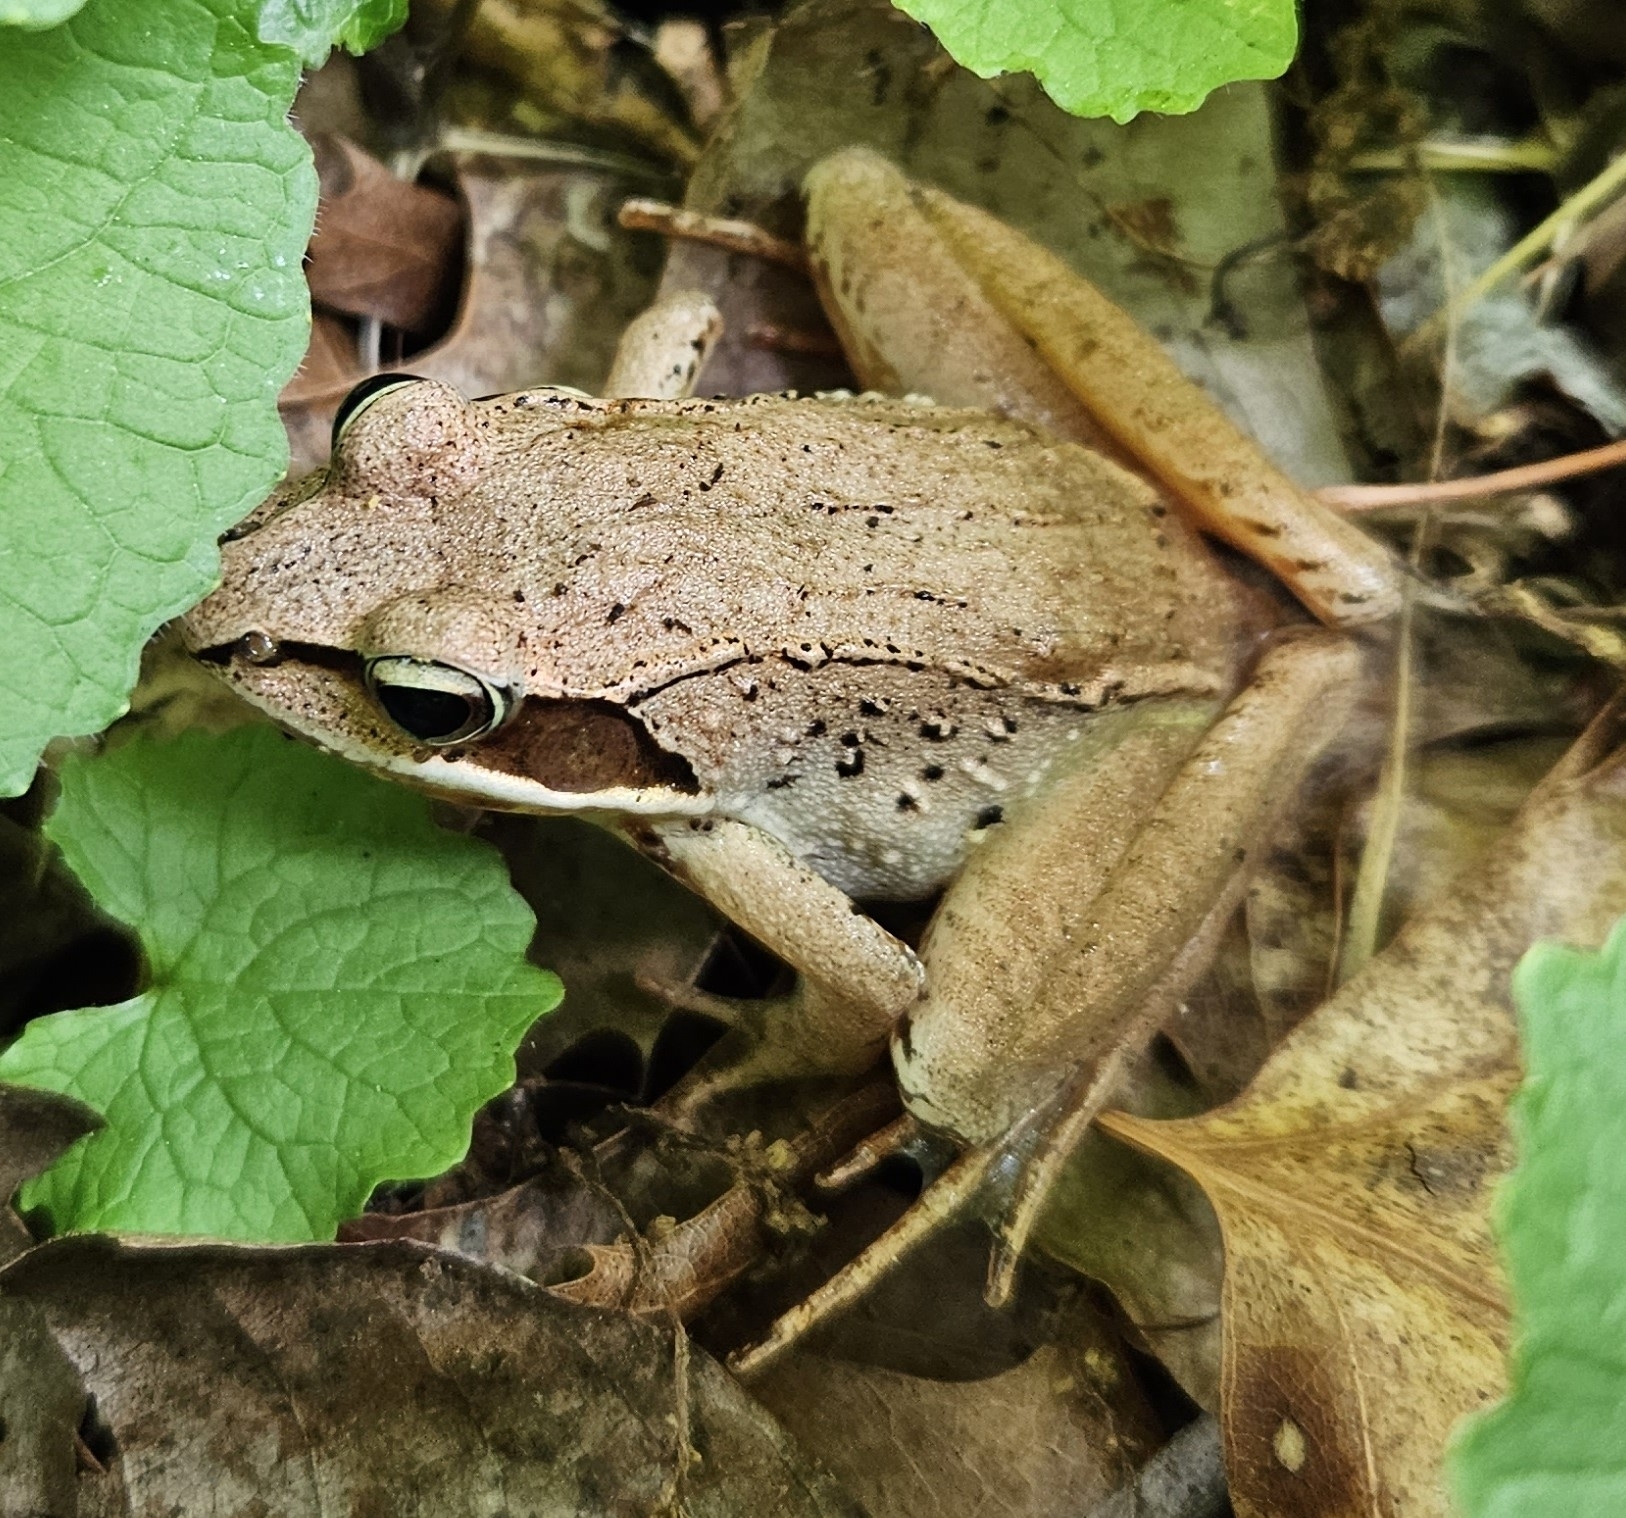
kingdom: Animalia
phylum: Chordata
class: Amphibia
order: Anura
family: Ranidae
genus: Lithobates
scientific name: Lithobates sylvaticus
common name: Wood frog
